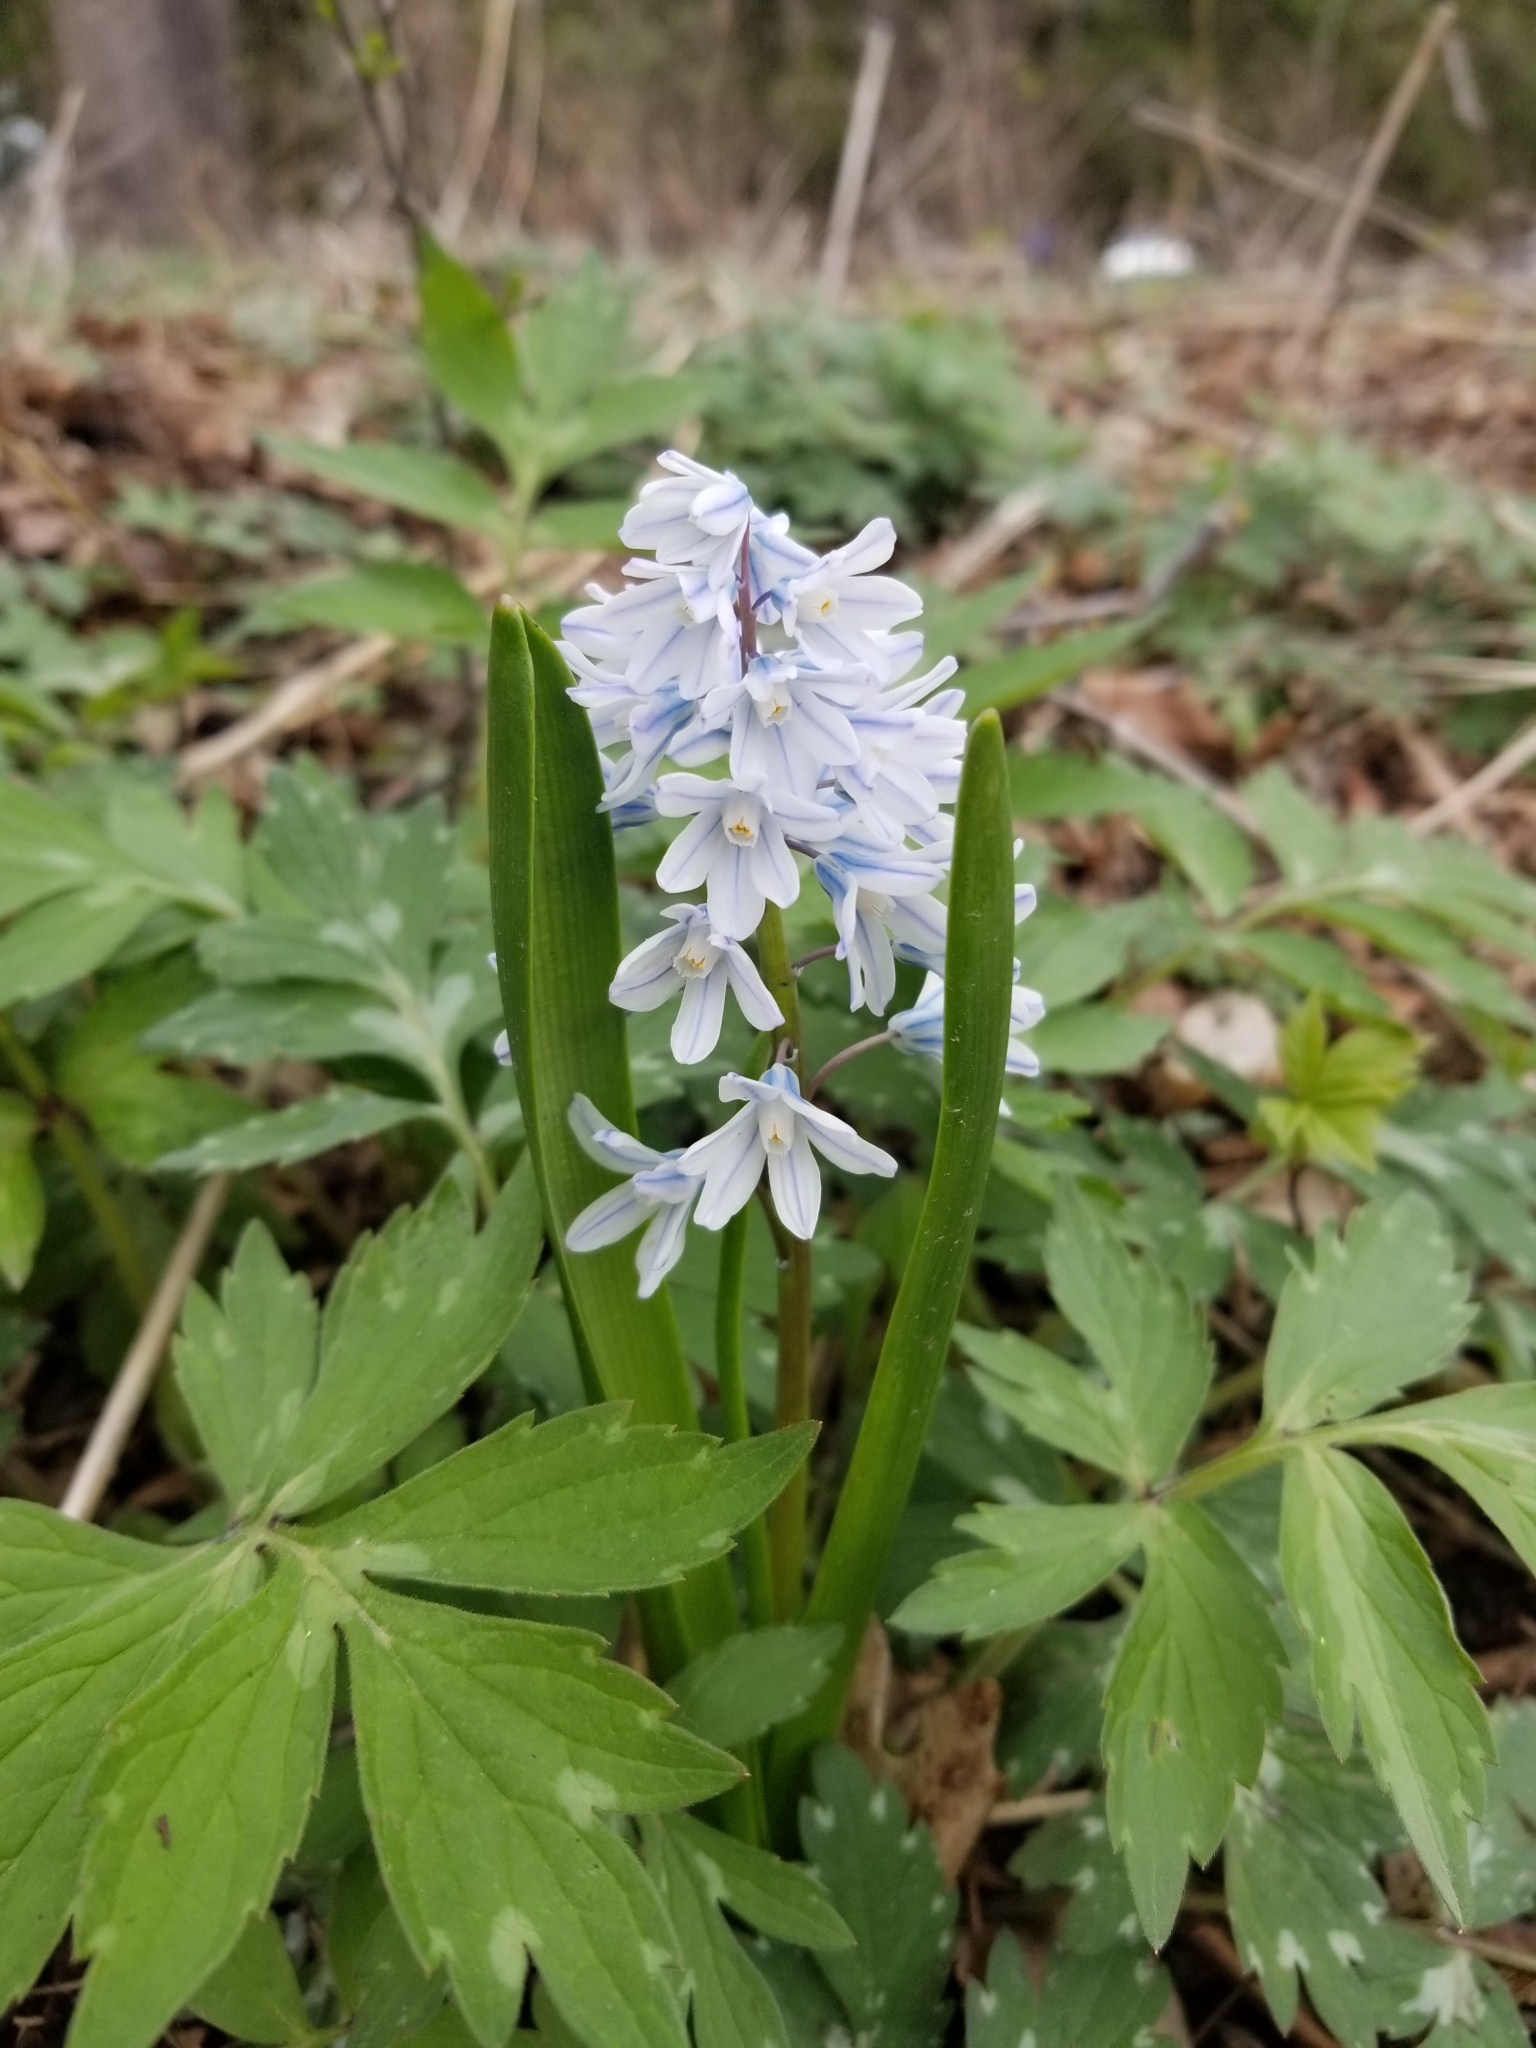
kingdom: Plantae
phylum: Tracheophyta
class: Liliopsida
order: Asparagales
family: Asparagaceae
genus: Puschkinia
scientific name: Puschkinia scilloides
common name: Striped squill
